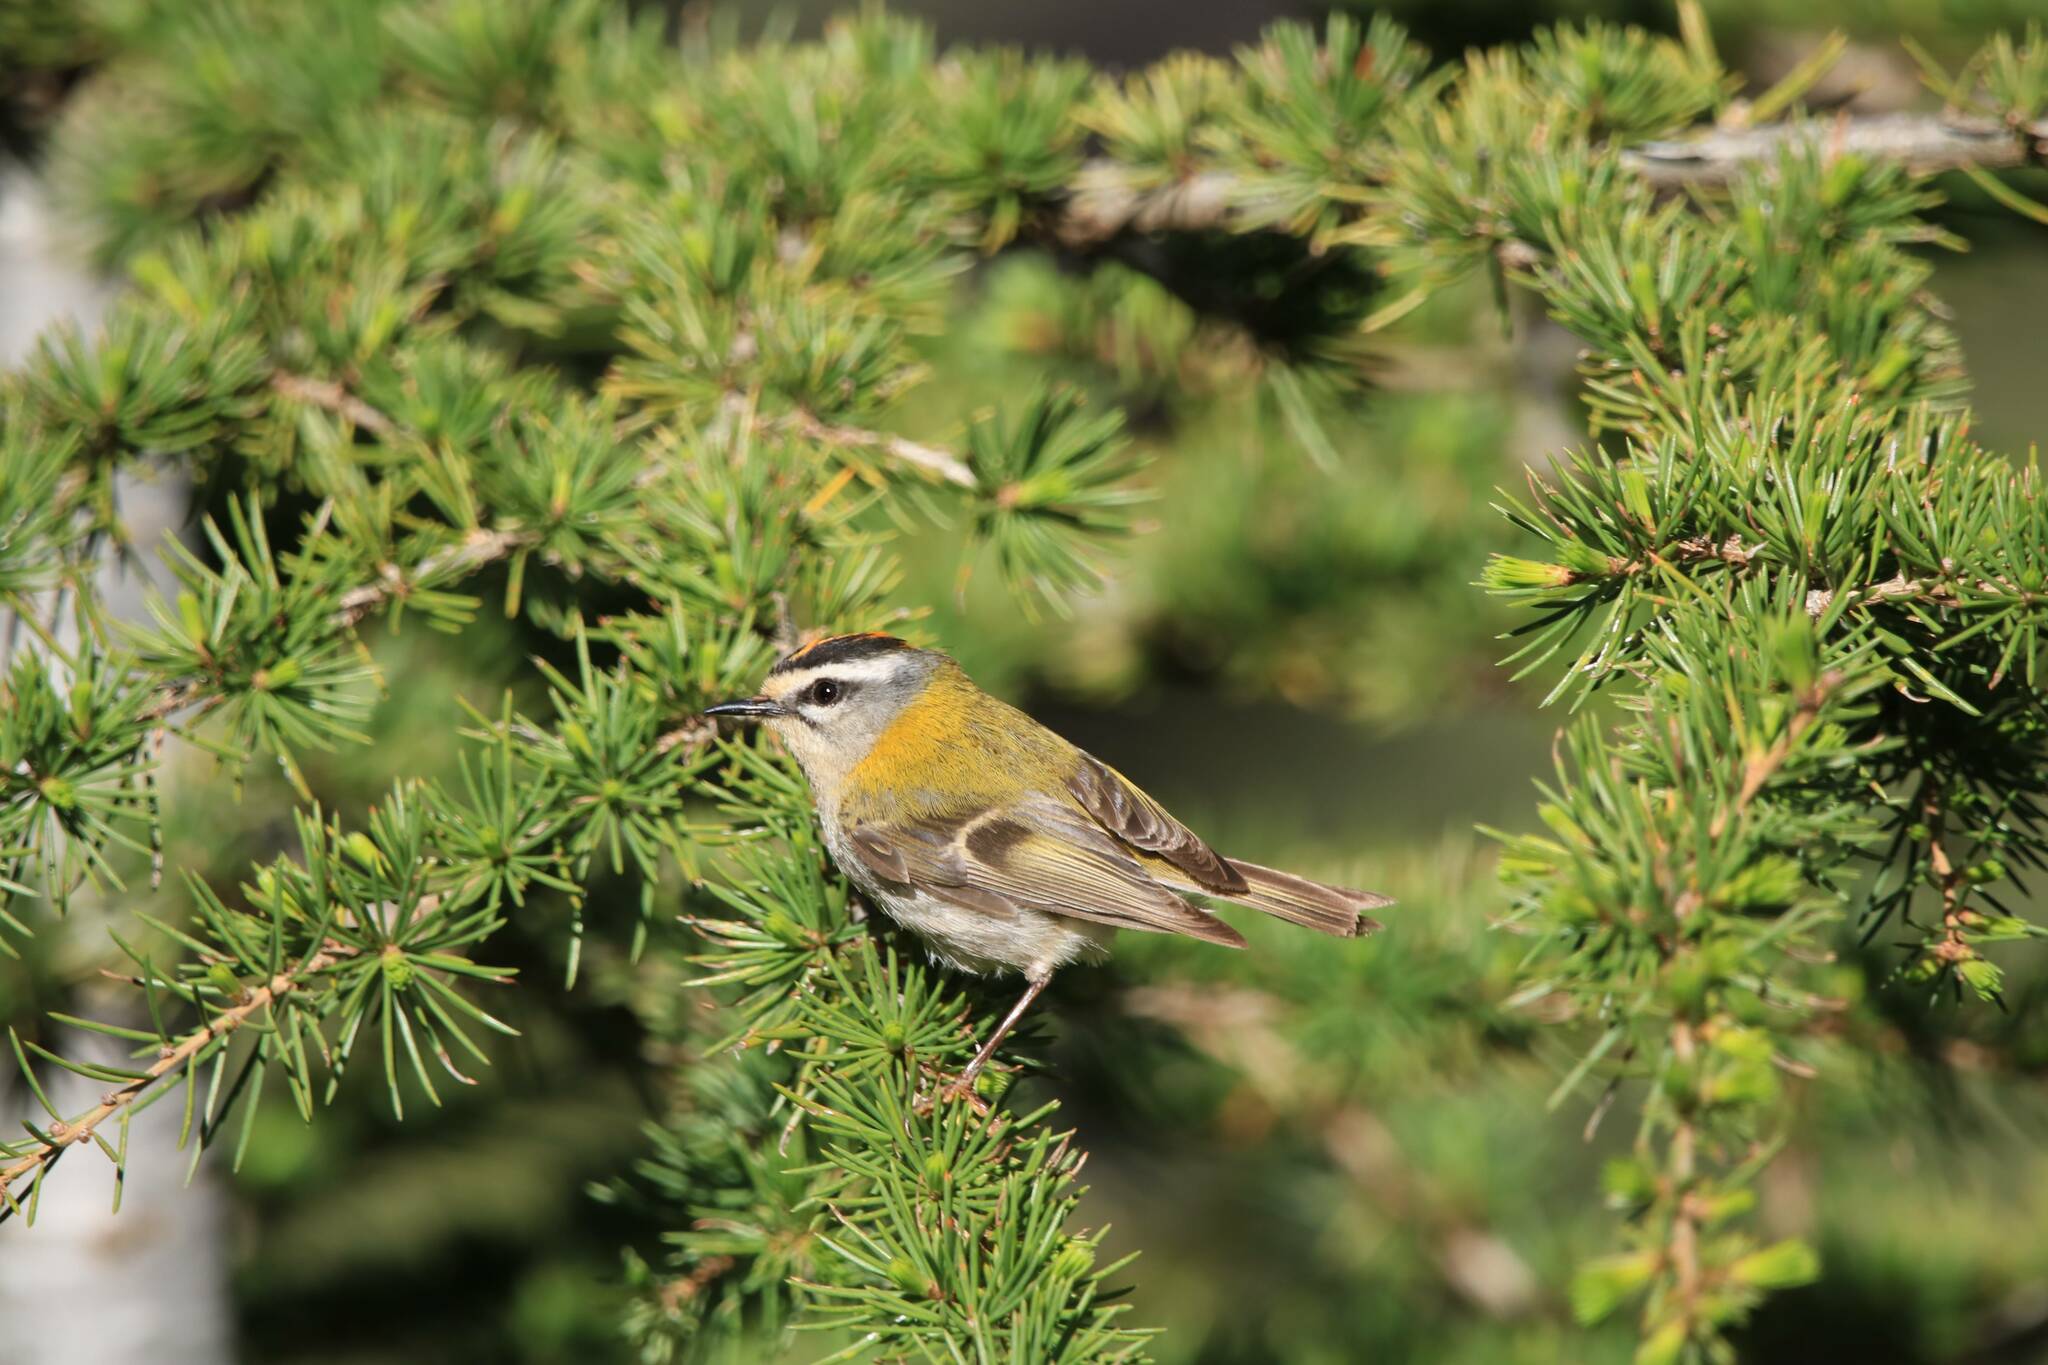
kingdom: Animalia
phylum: Chordata
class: Aves
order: Passeriformes
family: Regulidae
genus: Regulus
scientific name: Regulus ignicapilla
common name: Firecrest
